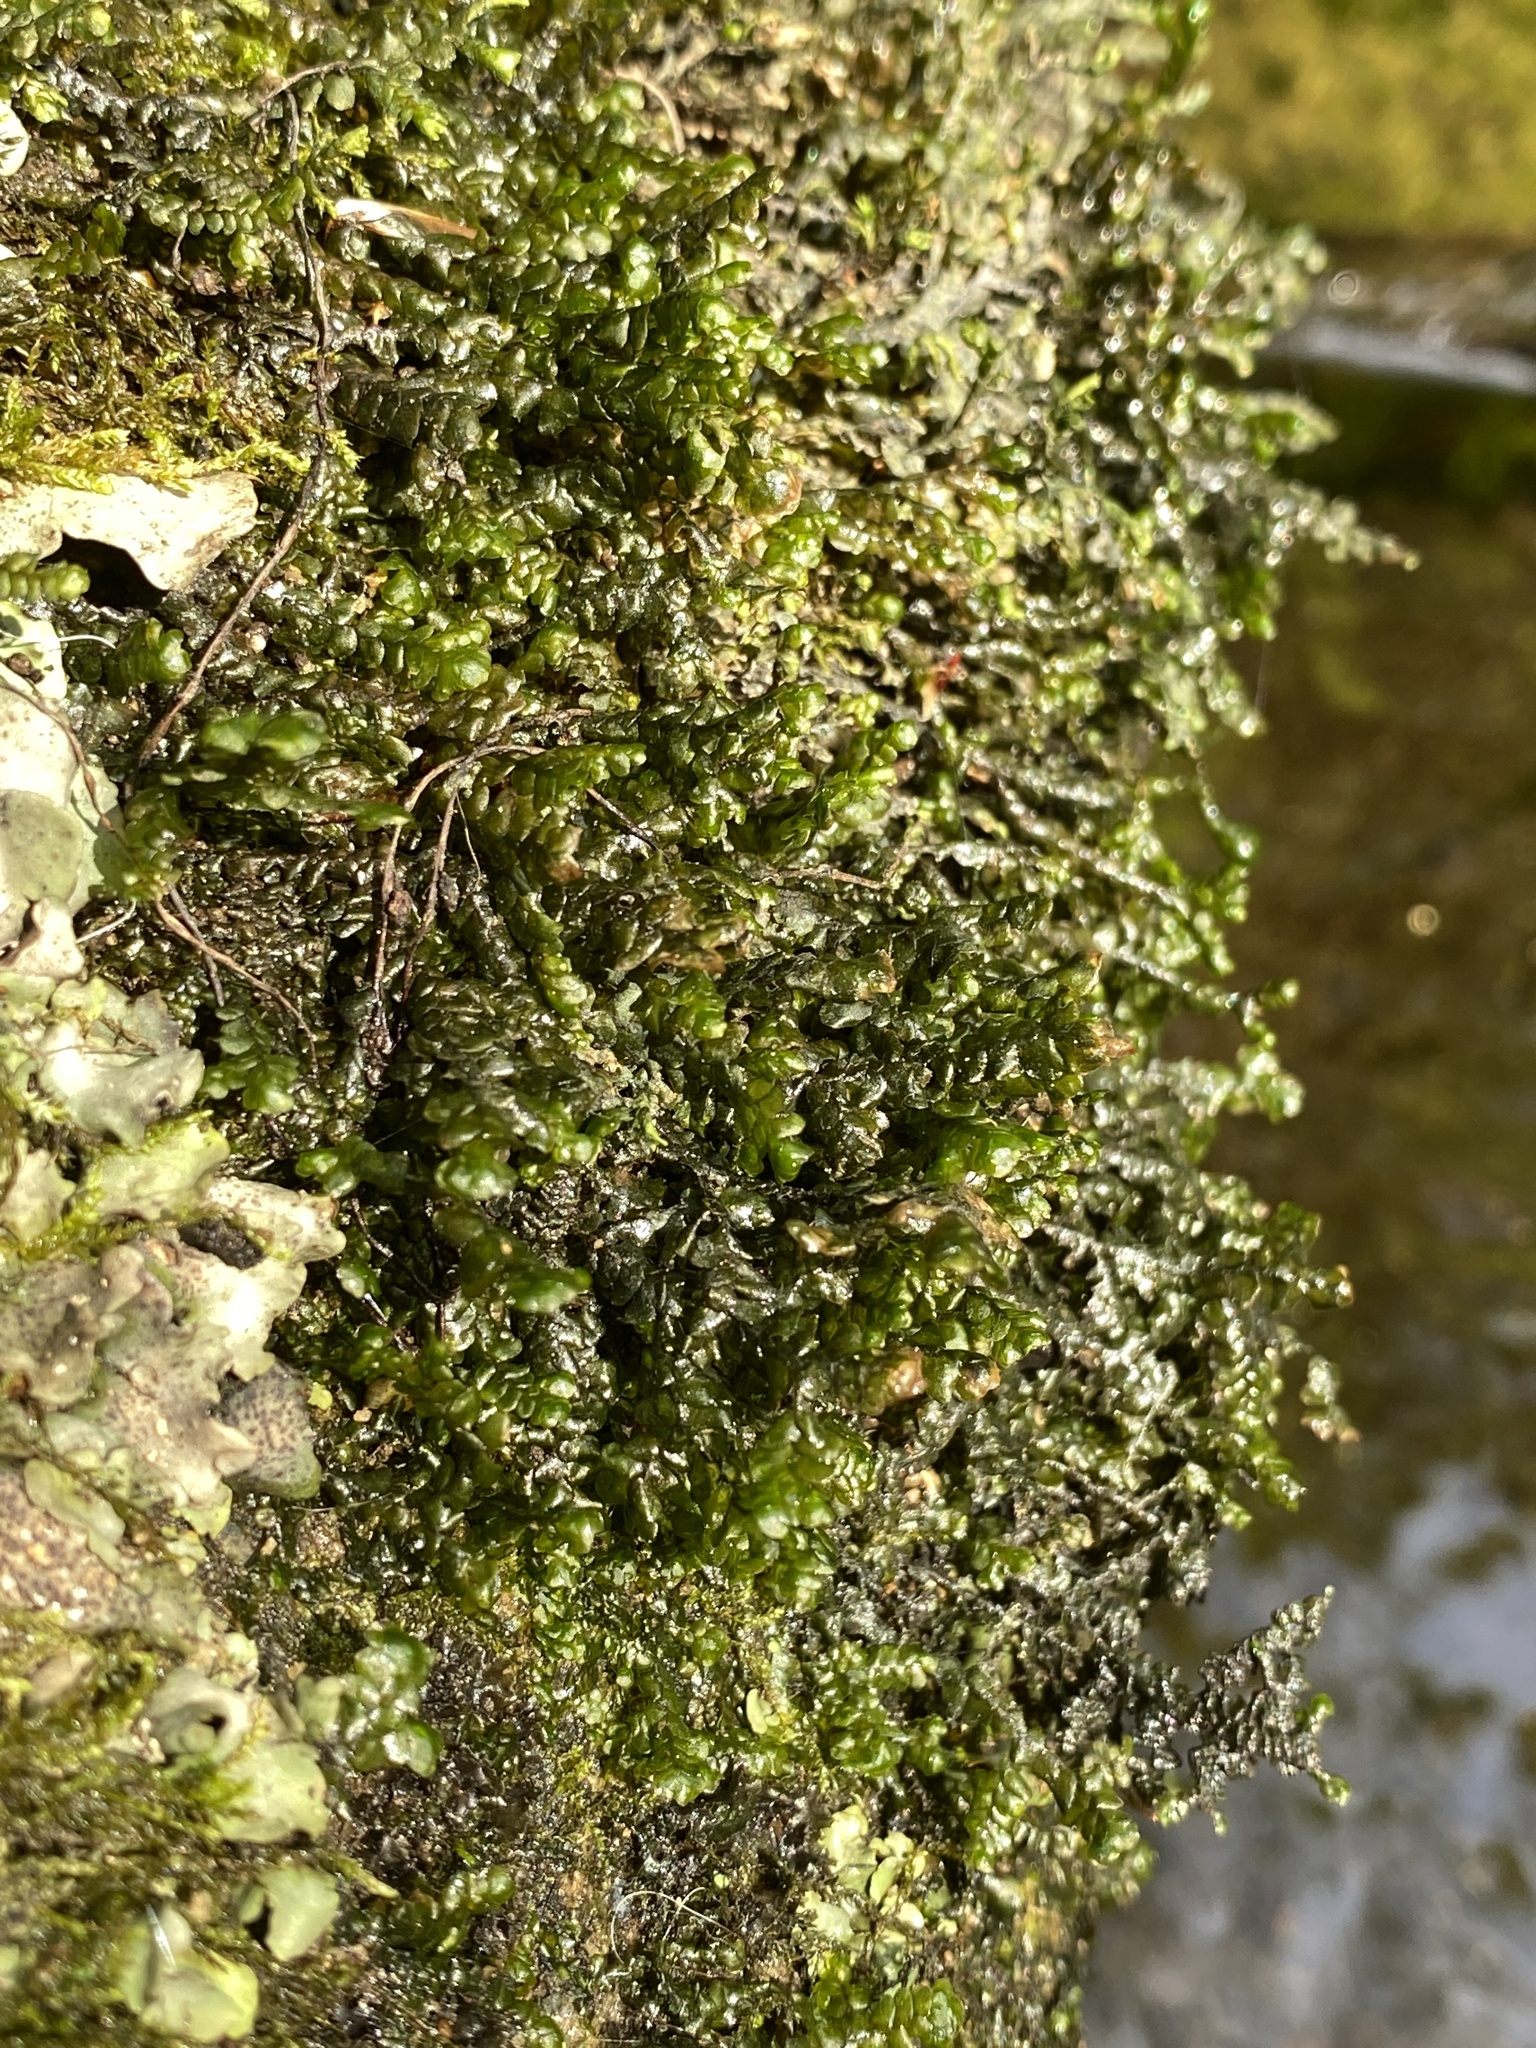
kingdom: Plantae
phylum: Marchantiophyta
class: Jungermanniopsida
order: Porellales
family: Porellaceae
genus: Porella
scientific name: Porella pinnata
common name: Pinnate scalewort
